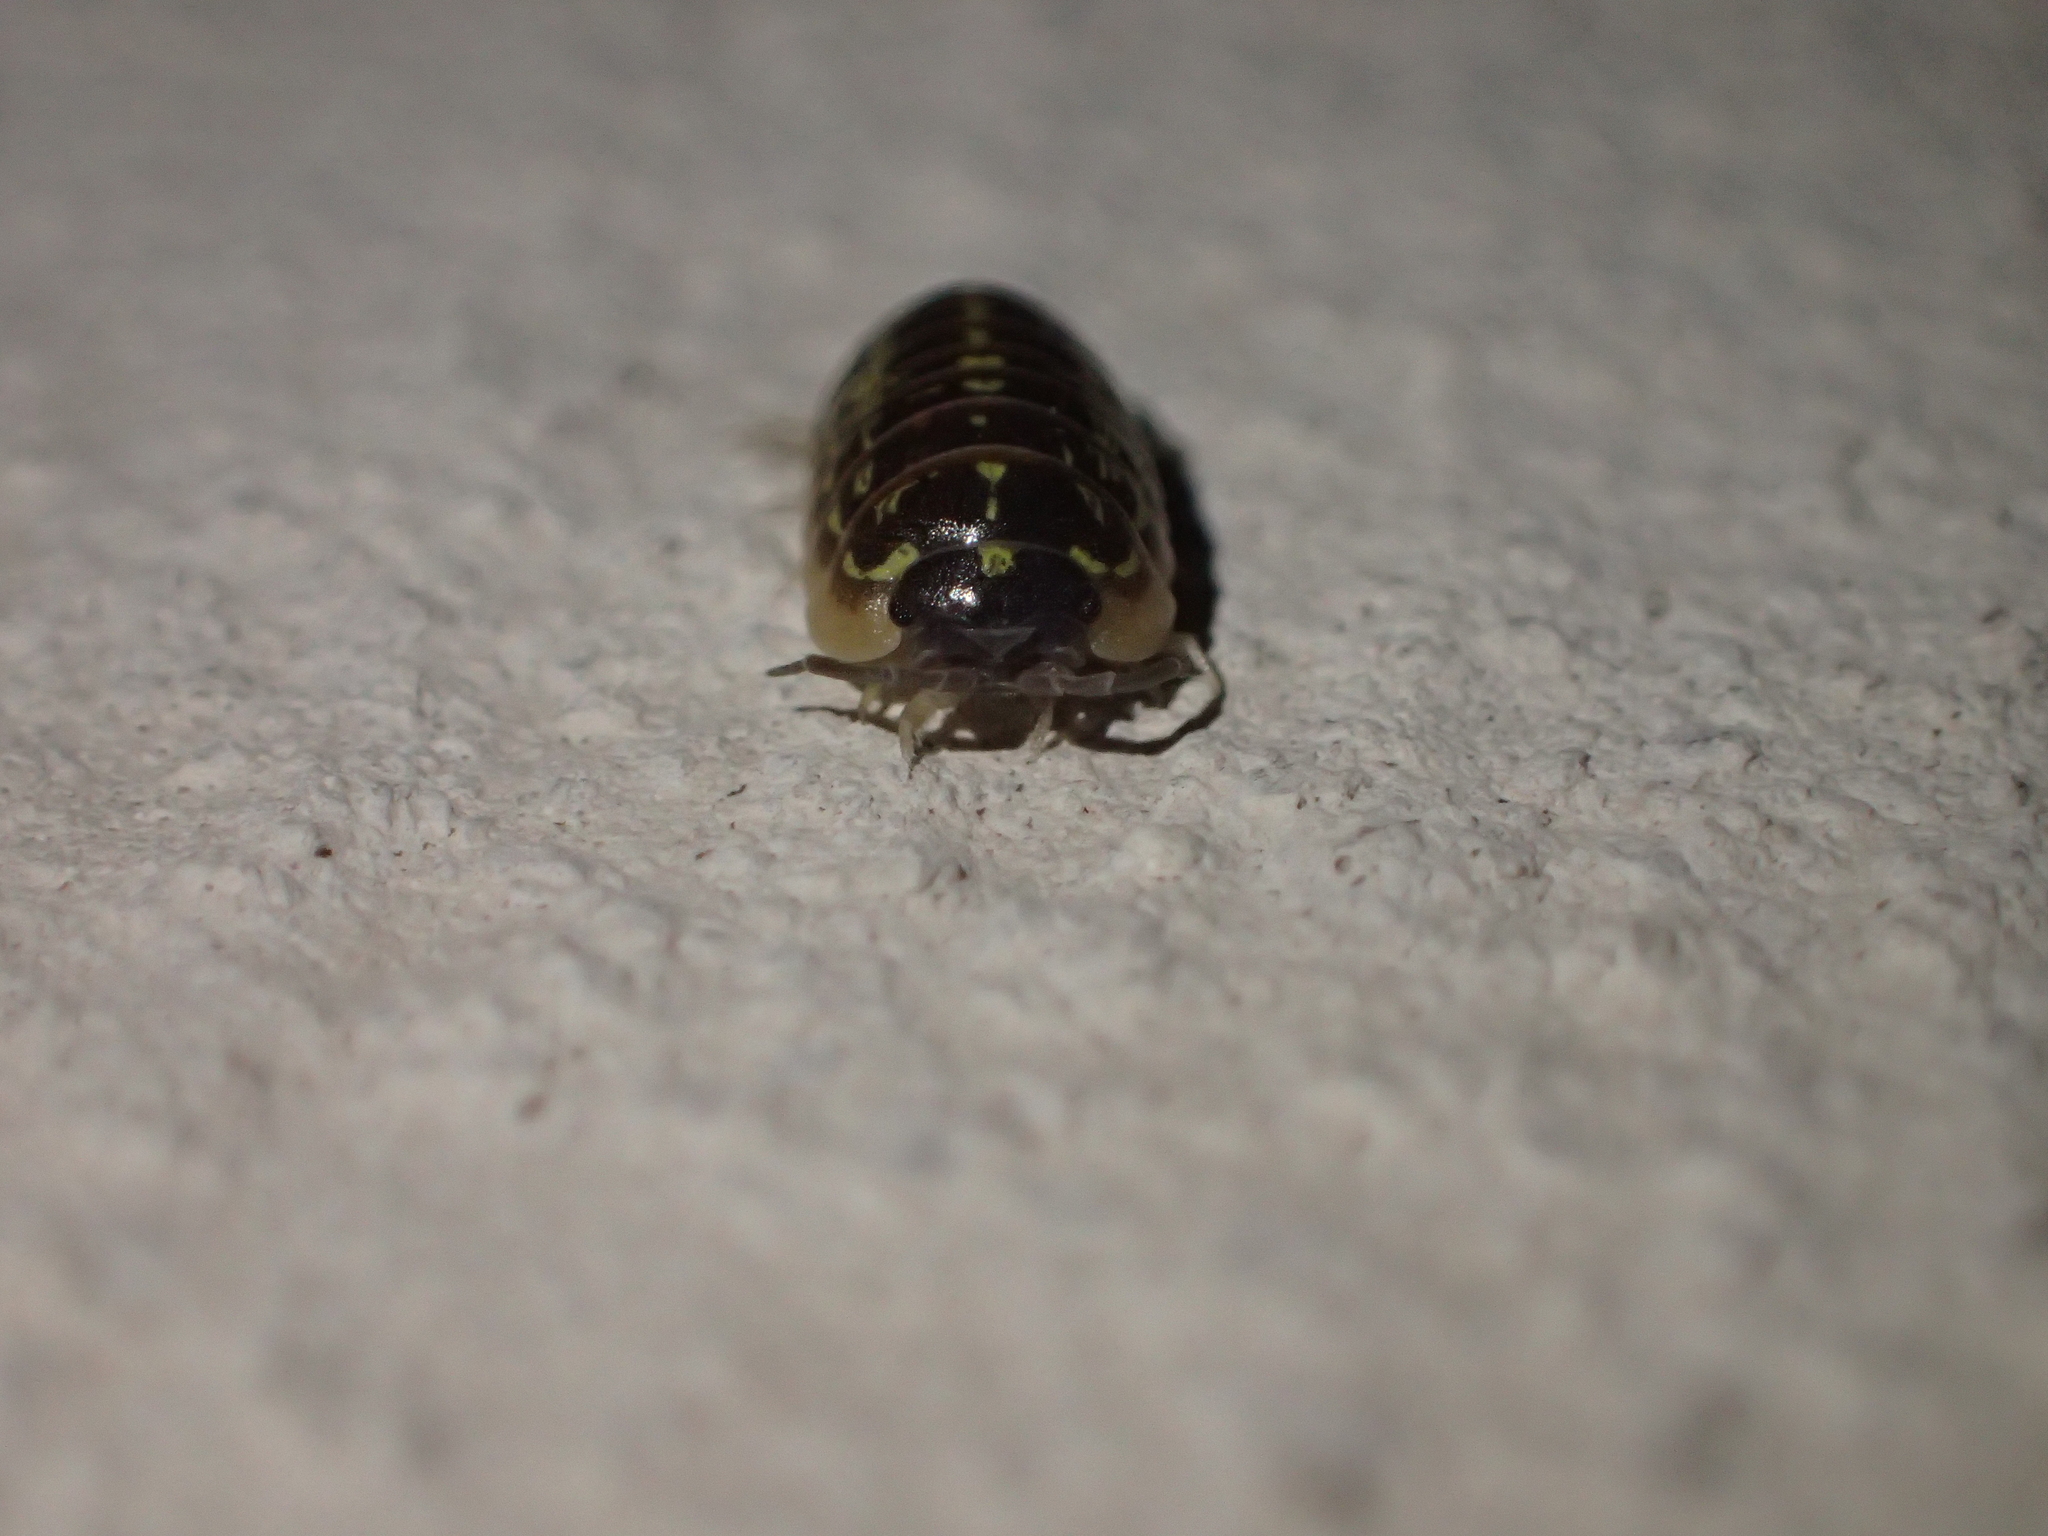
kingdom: Animalia
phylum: Arthropoda
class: Malacostraca
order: Isopoda
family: Armadillidiidae
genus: Armadillidium
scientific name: Armadillidium versicolor
